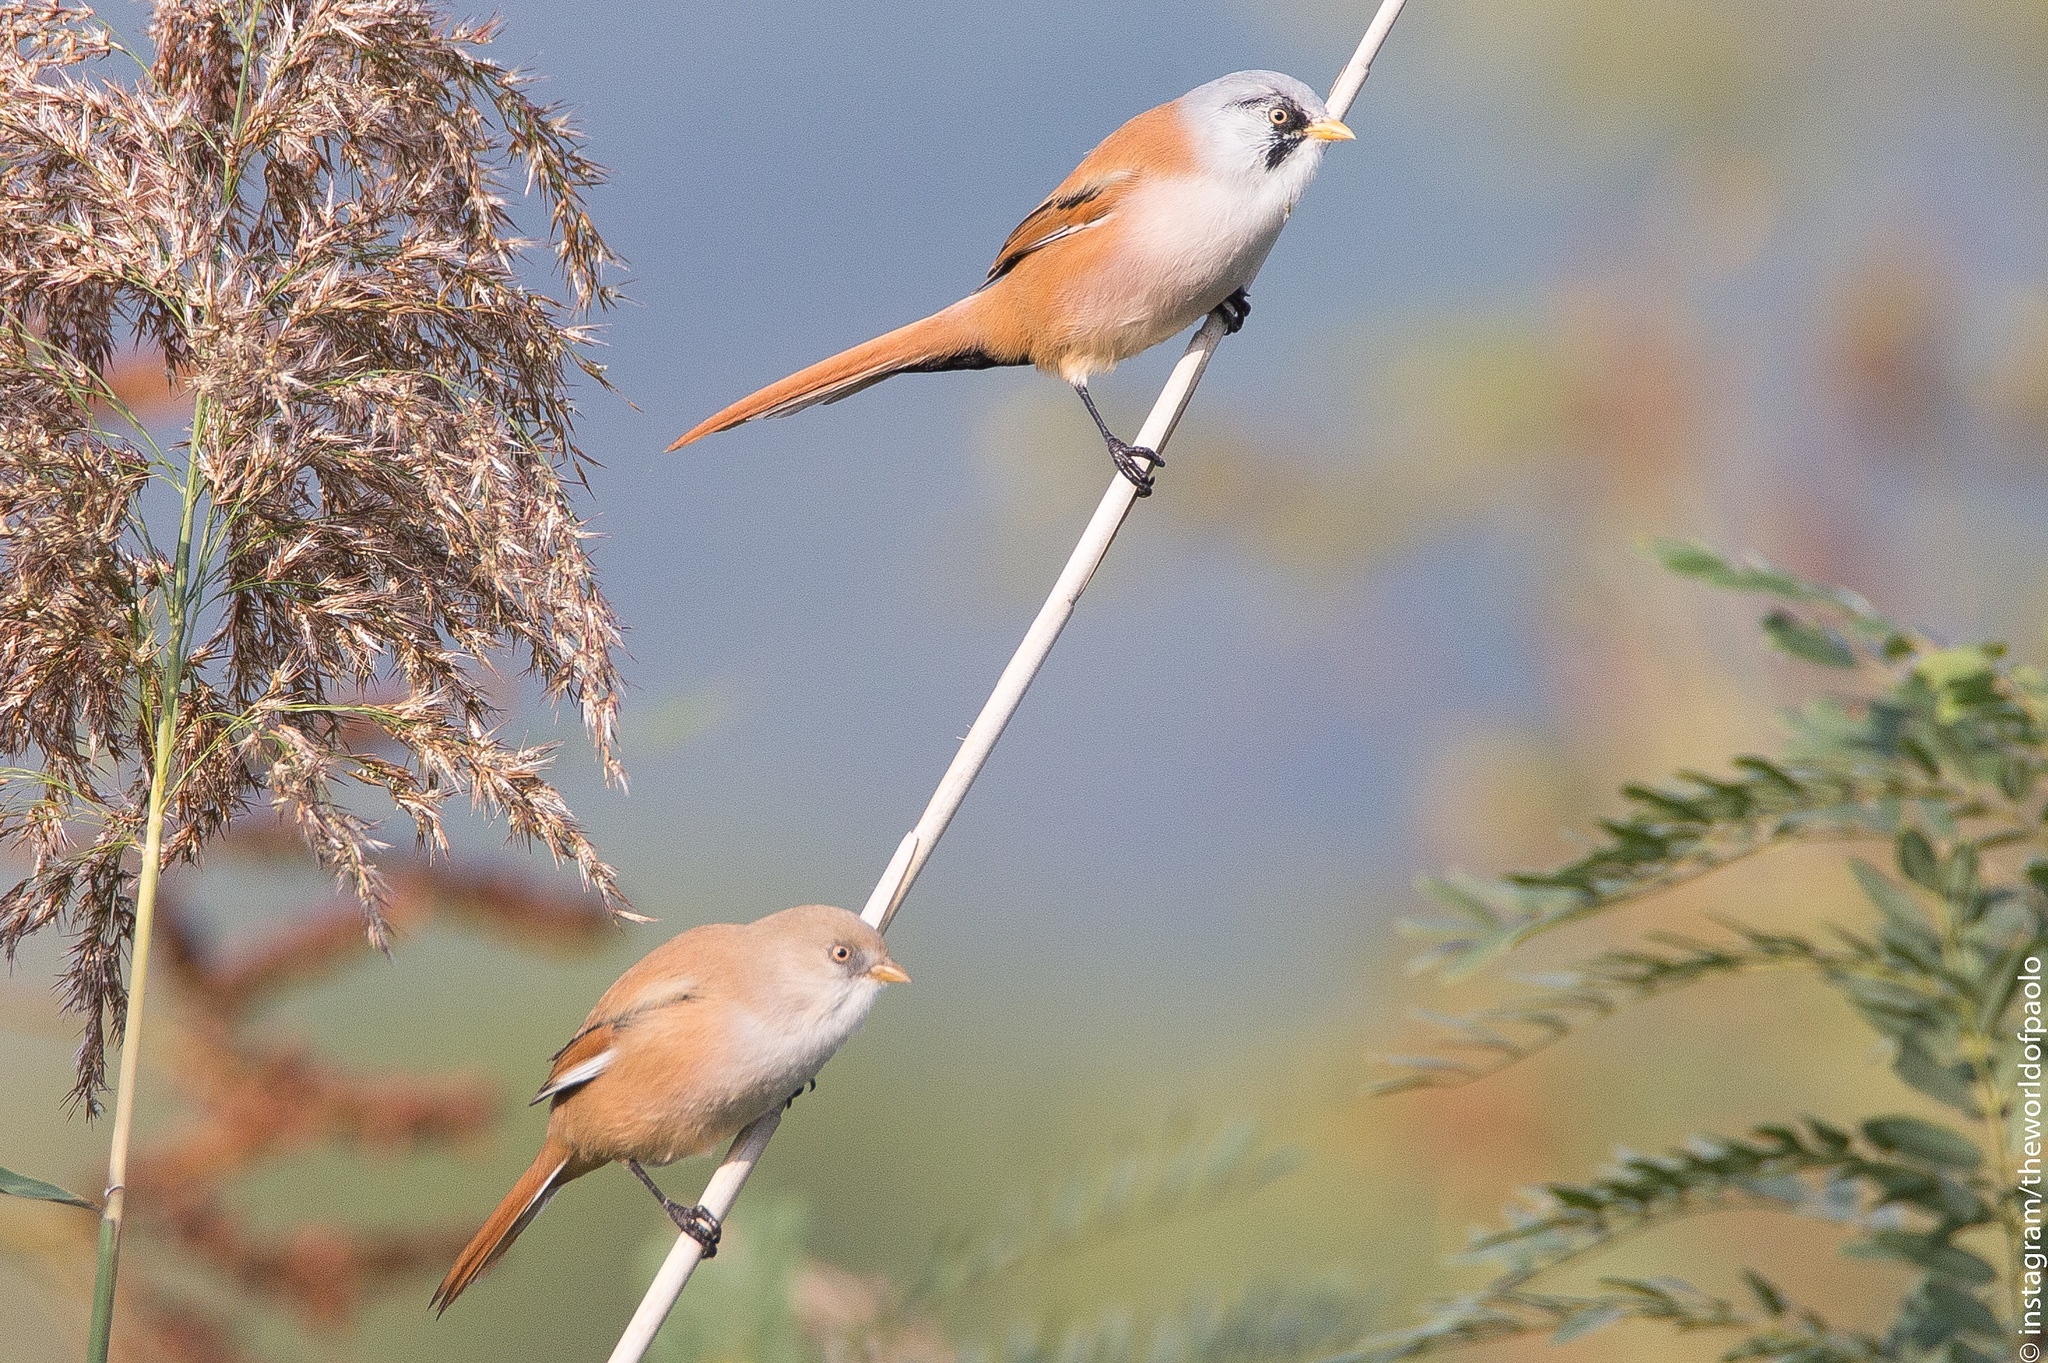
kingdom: Animalia
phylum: Chordata
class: Aves
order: Passeriformes
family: Panuridae
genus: Panurus
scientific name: Panurus biarmicus
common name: Bearded reedling
